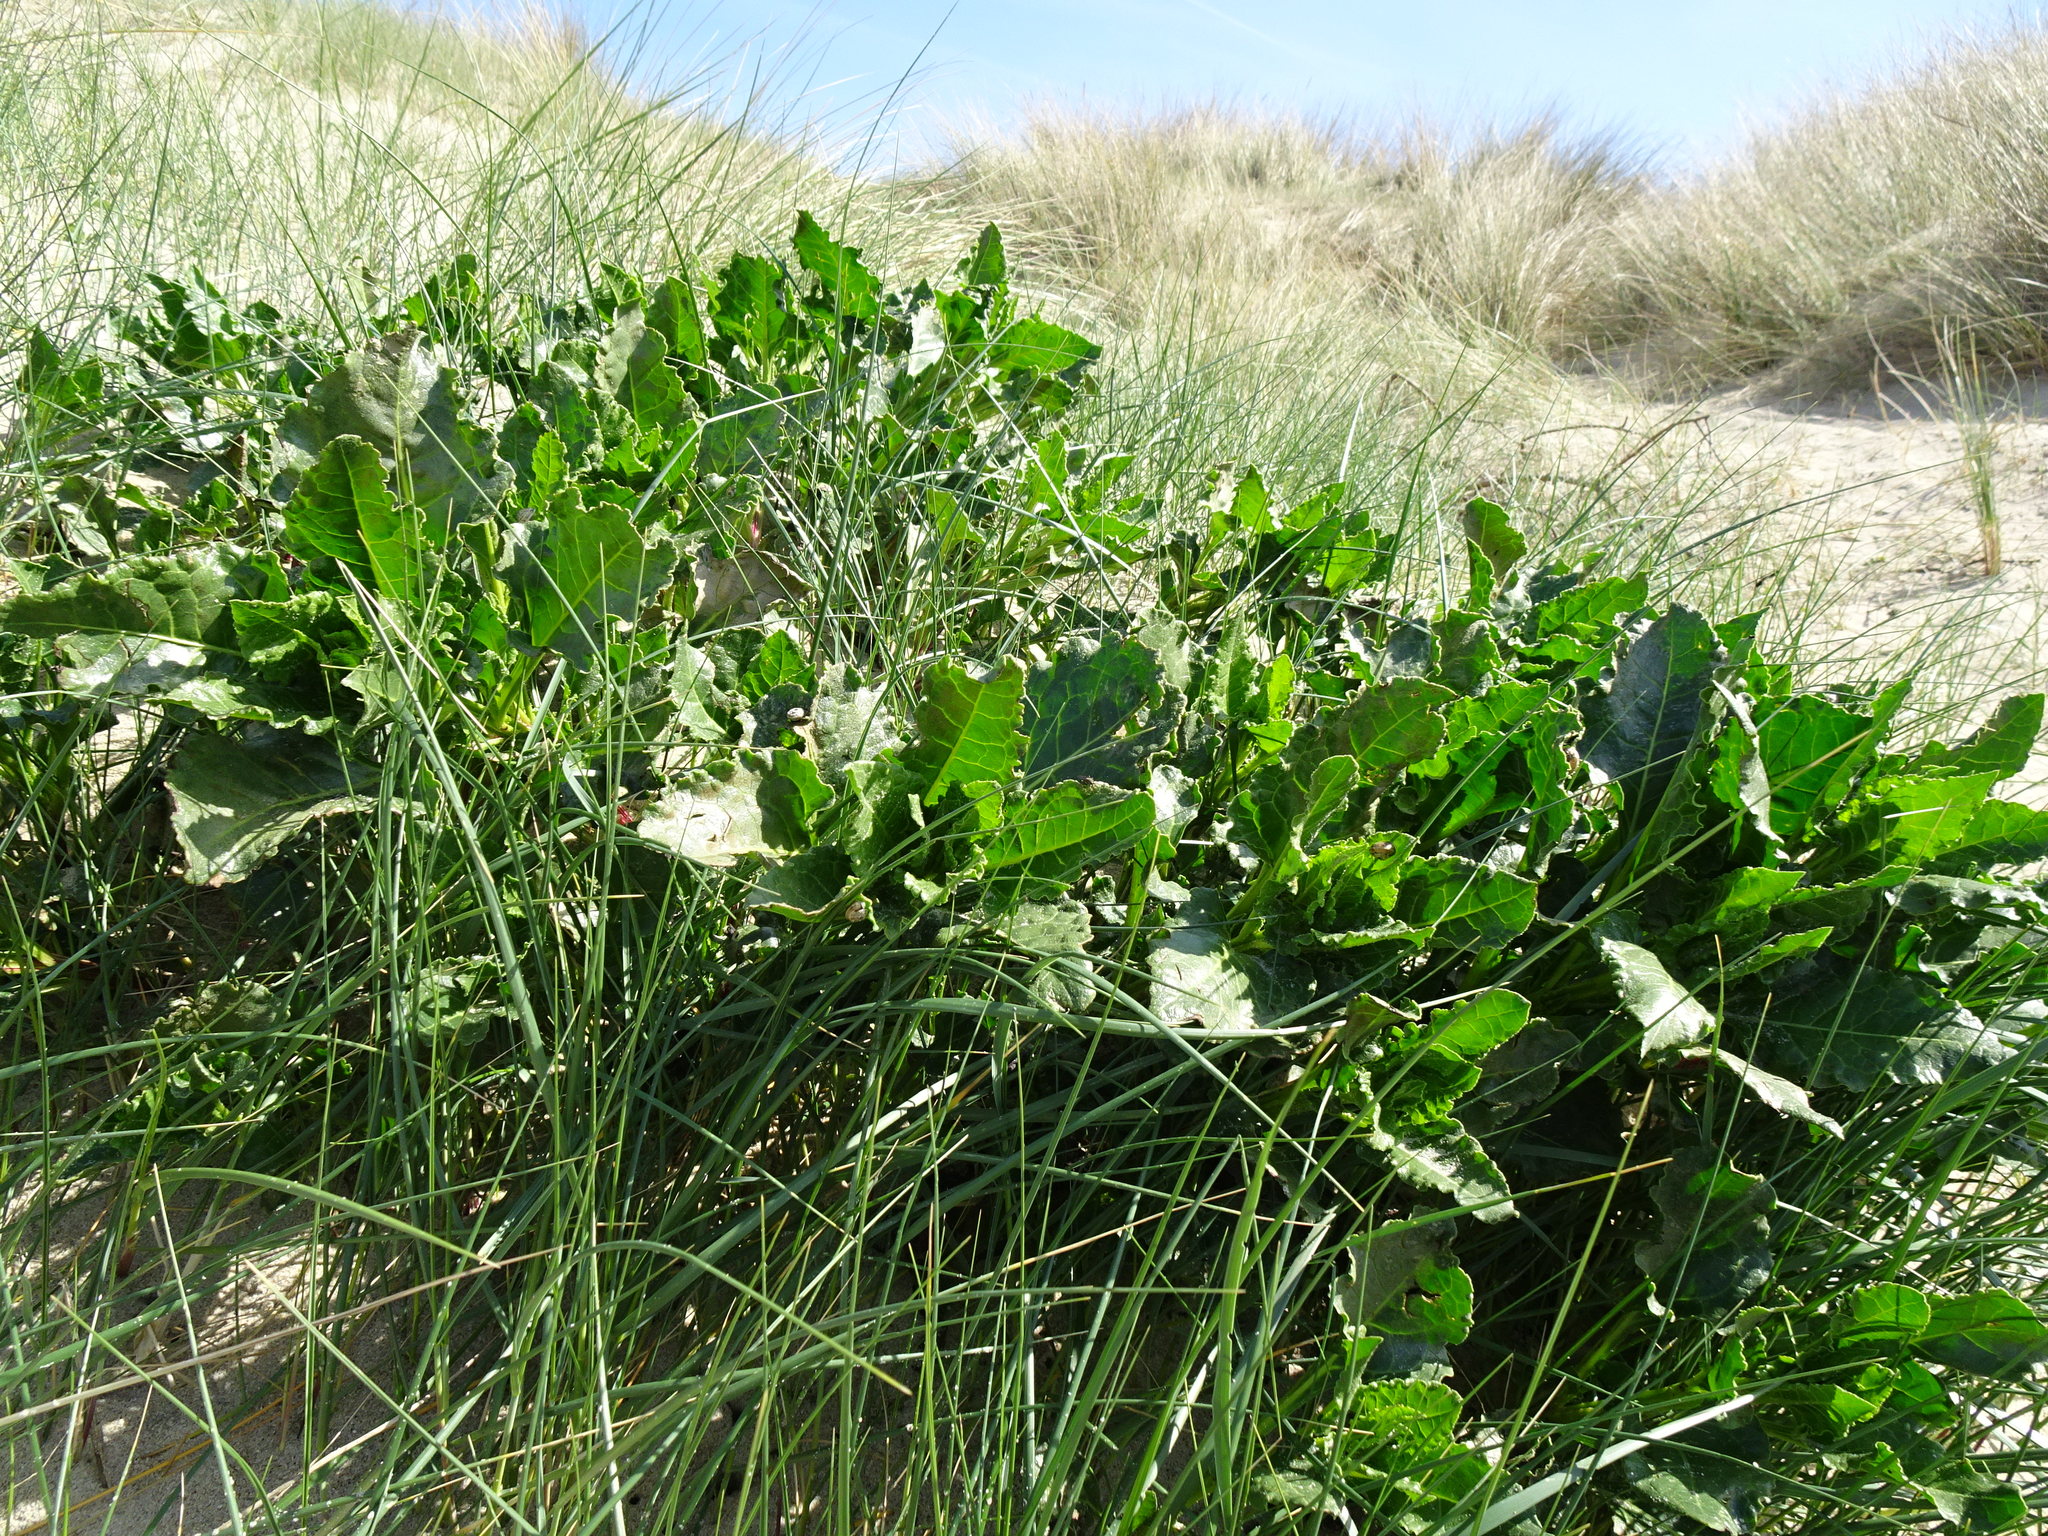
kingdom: Plantae
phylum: Tracheophyta
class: Magnoliopsida
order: Caryophyllales
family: Amaranthaceae
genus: Beta
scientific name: Beta vulgaris
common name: Beet
